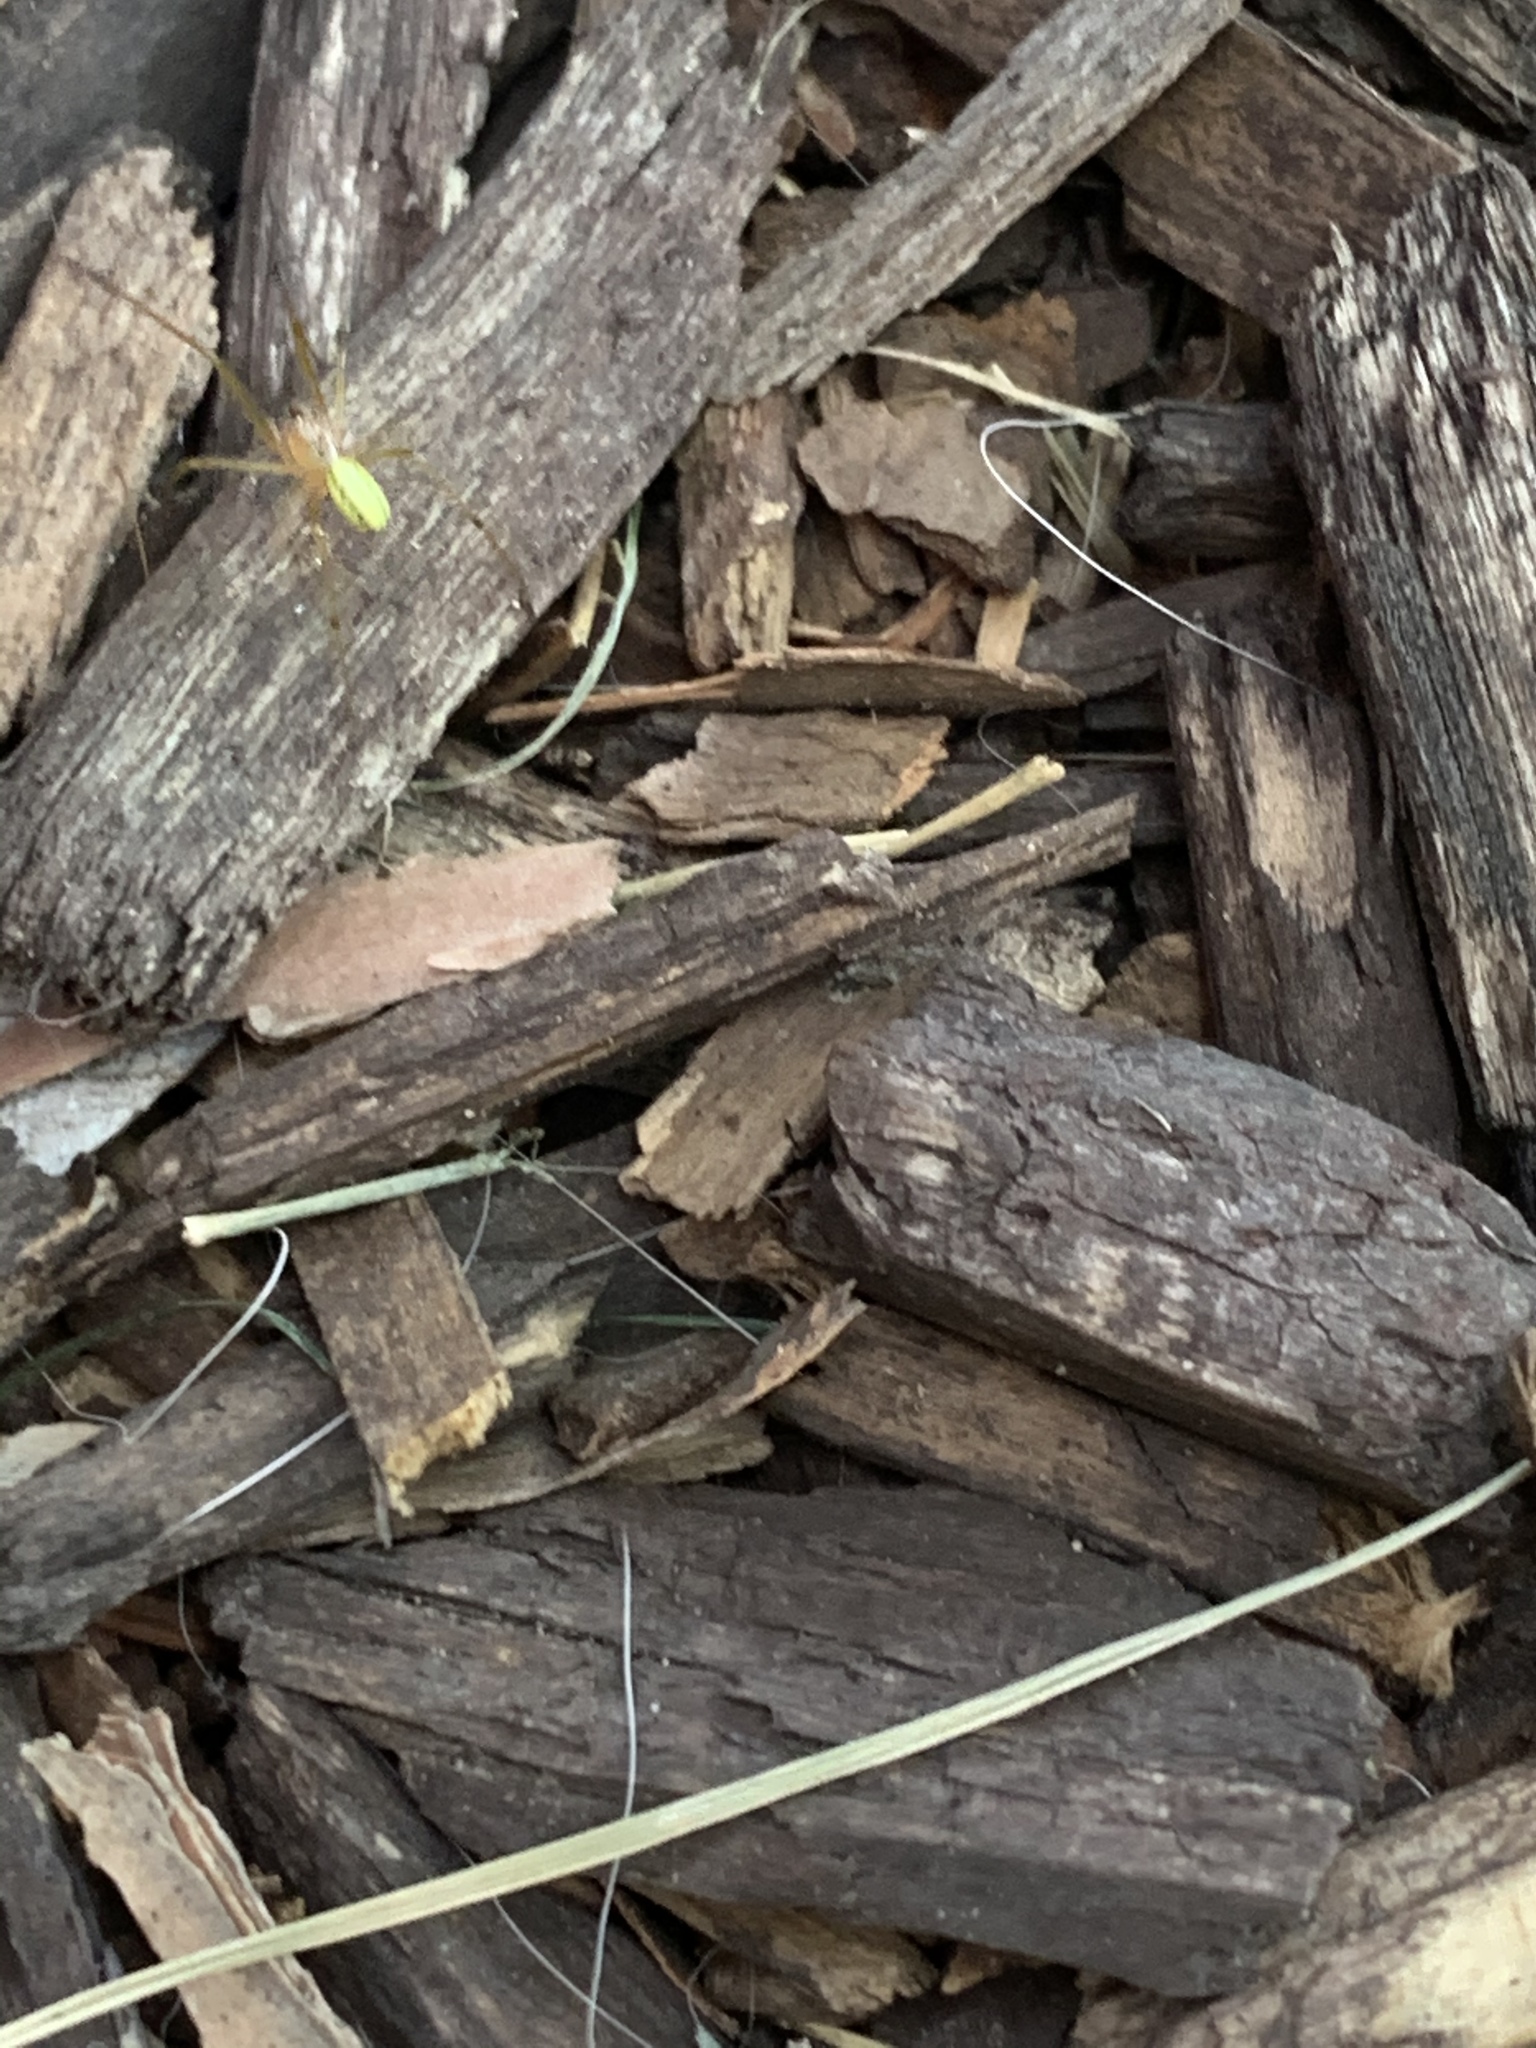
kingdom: Animalia
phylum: Arthropoda
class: Arachnida
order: Araneae
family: Theridiidae
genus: Enoplognatha
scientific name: Enoplognatha ovata
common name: Common candy-striped spider
